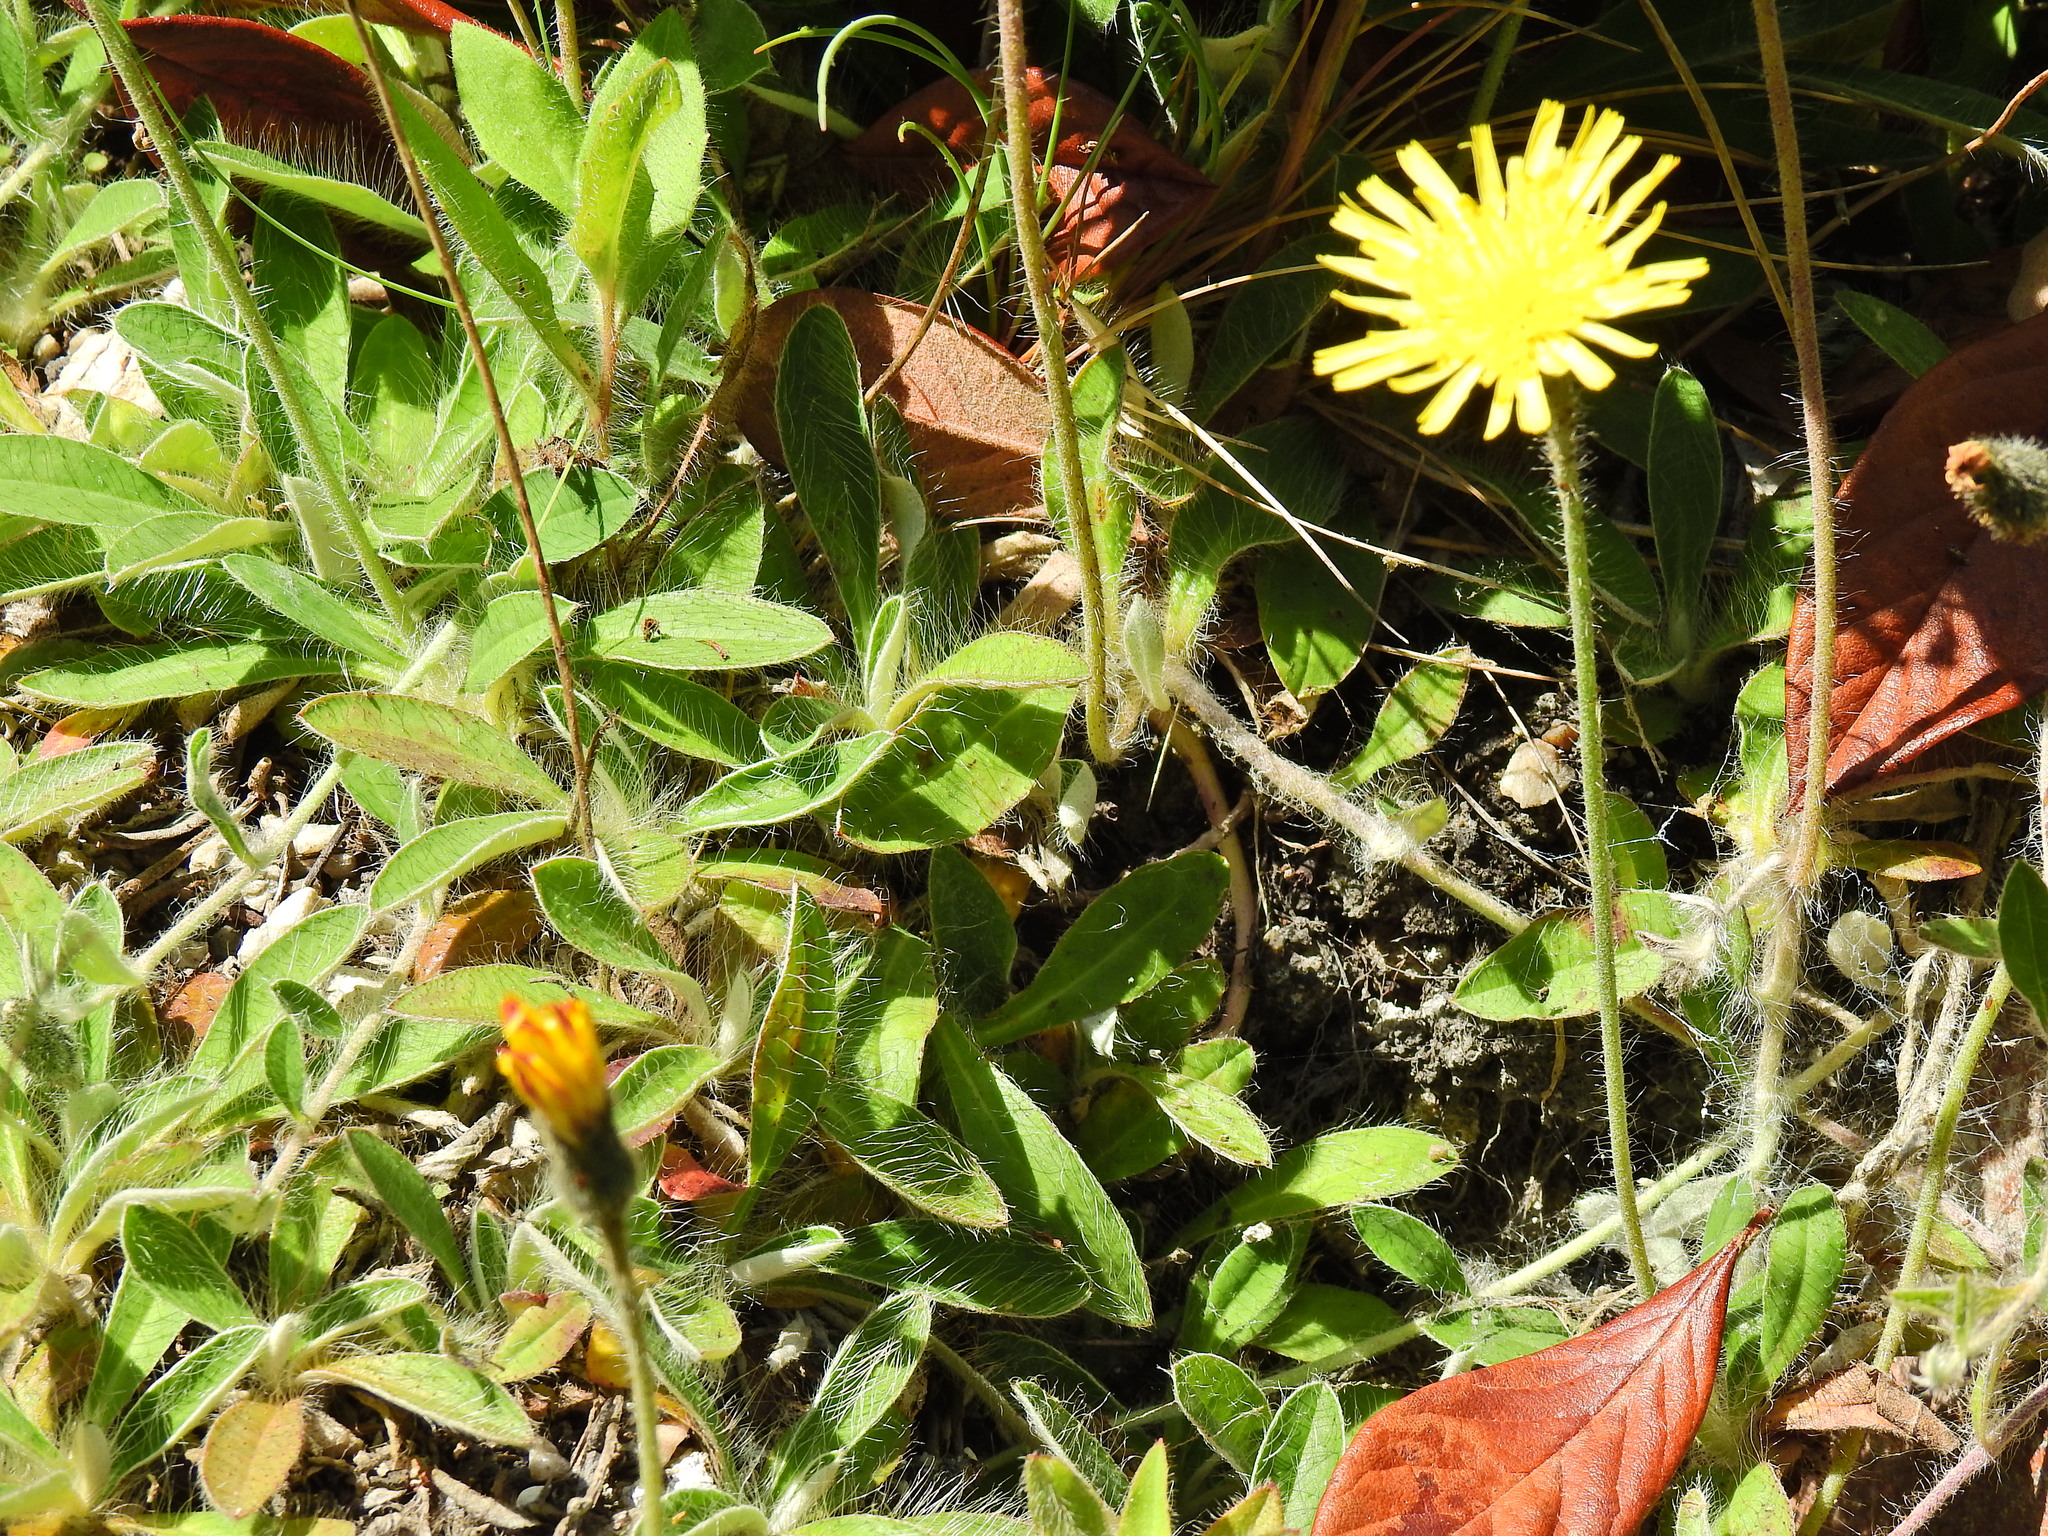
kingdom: Plantae
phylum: Tracheophyta
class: Magnoliopsida
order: Asterales
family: Asteraceae
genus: Pilosella
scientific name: Pilosella officinarum
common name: Mouse-ear hawkweed
